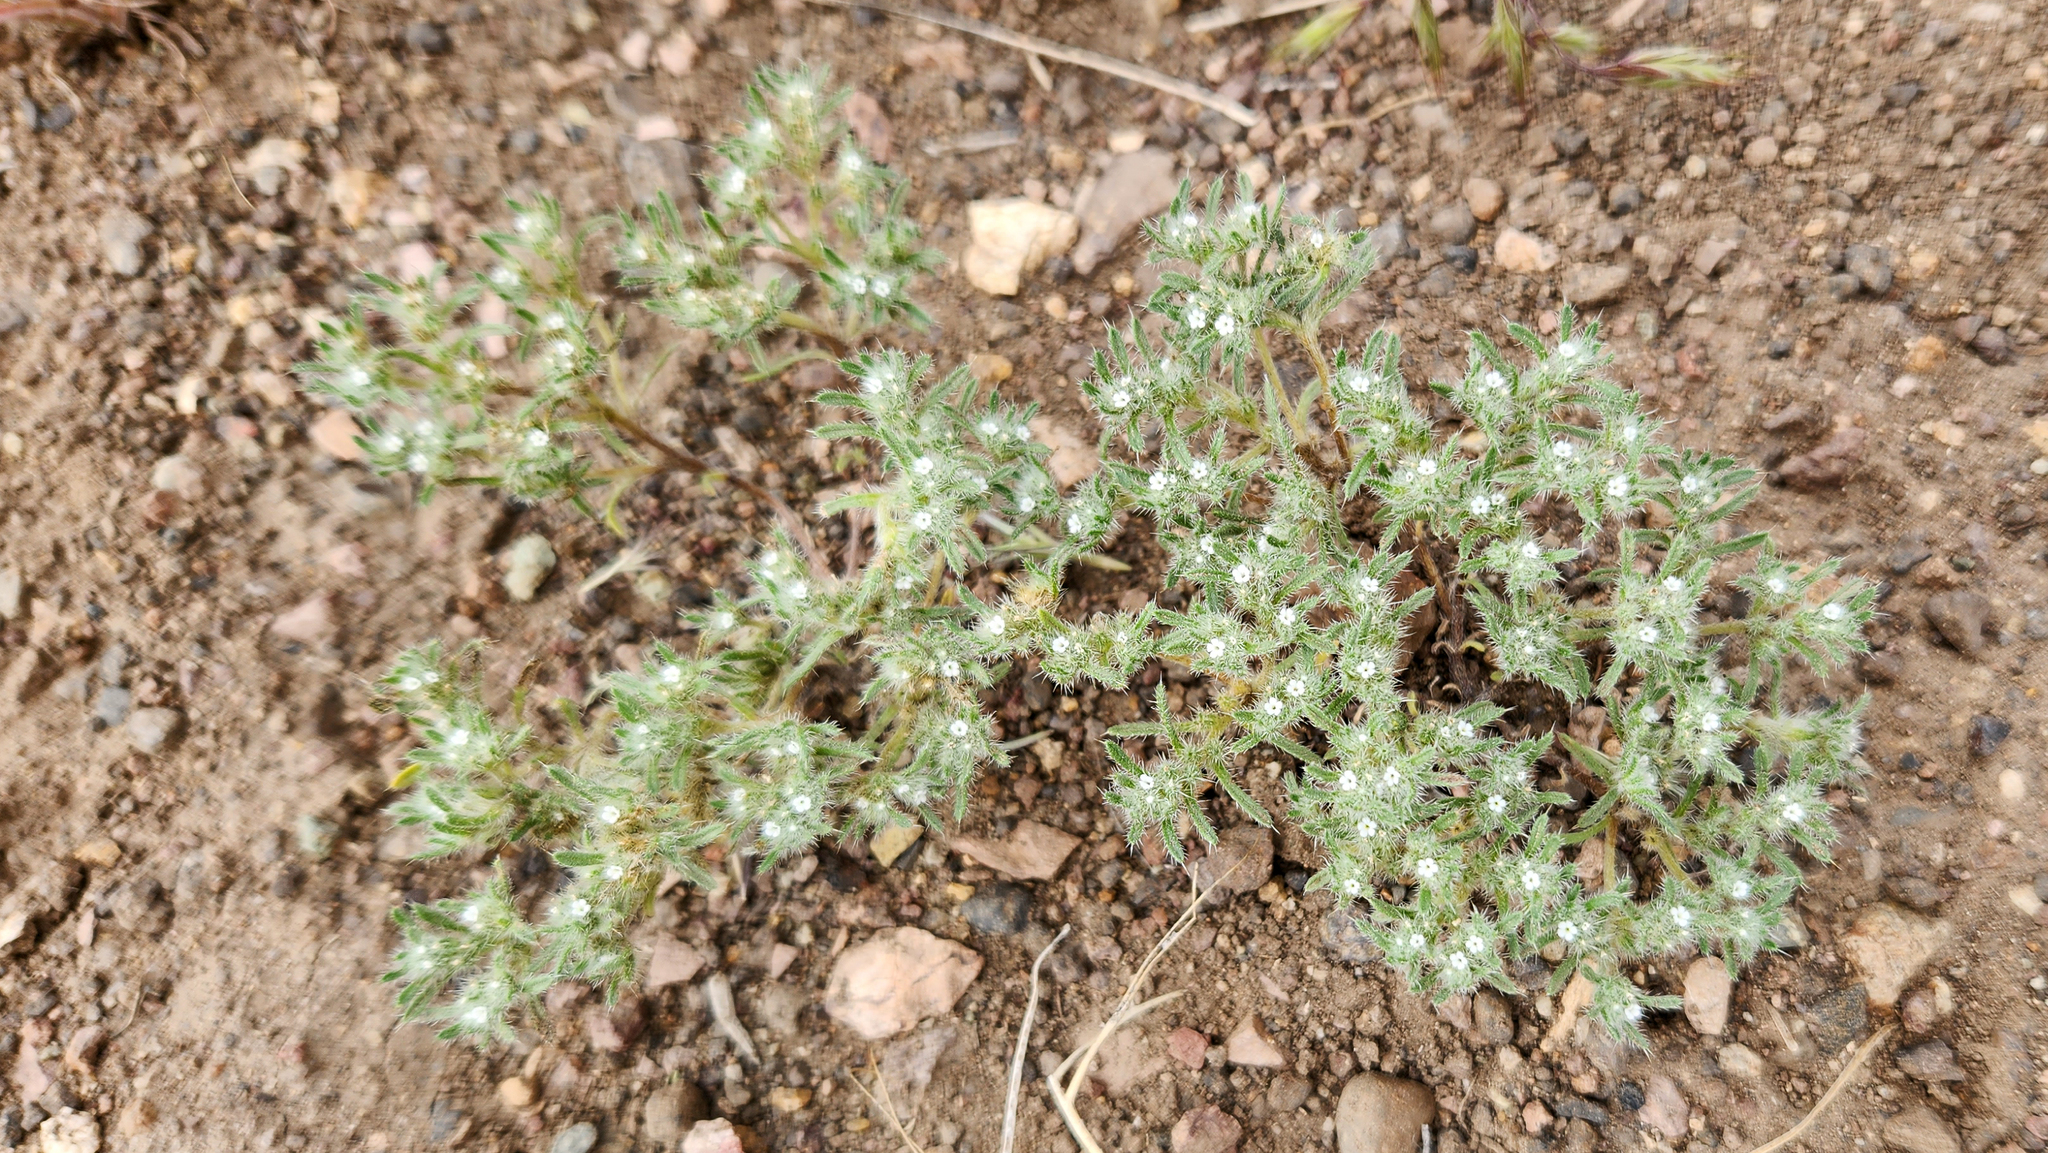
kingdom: Plantae
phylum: Tracheophyta
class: Magnoliopsida
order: Boraginales
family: Boraginaceae
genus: Greeneocharis
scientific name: Greeneocharis circumscissa
